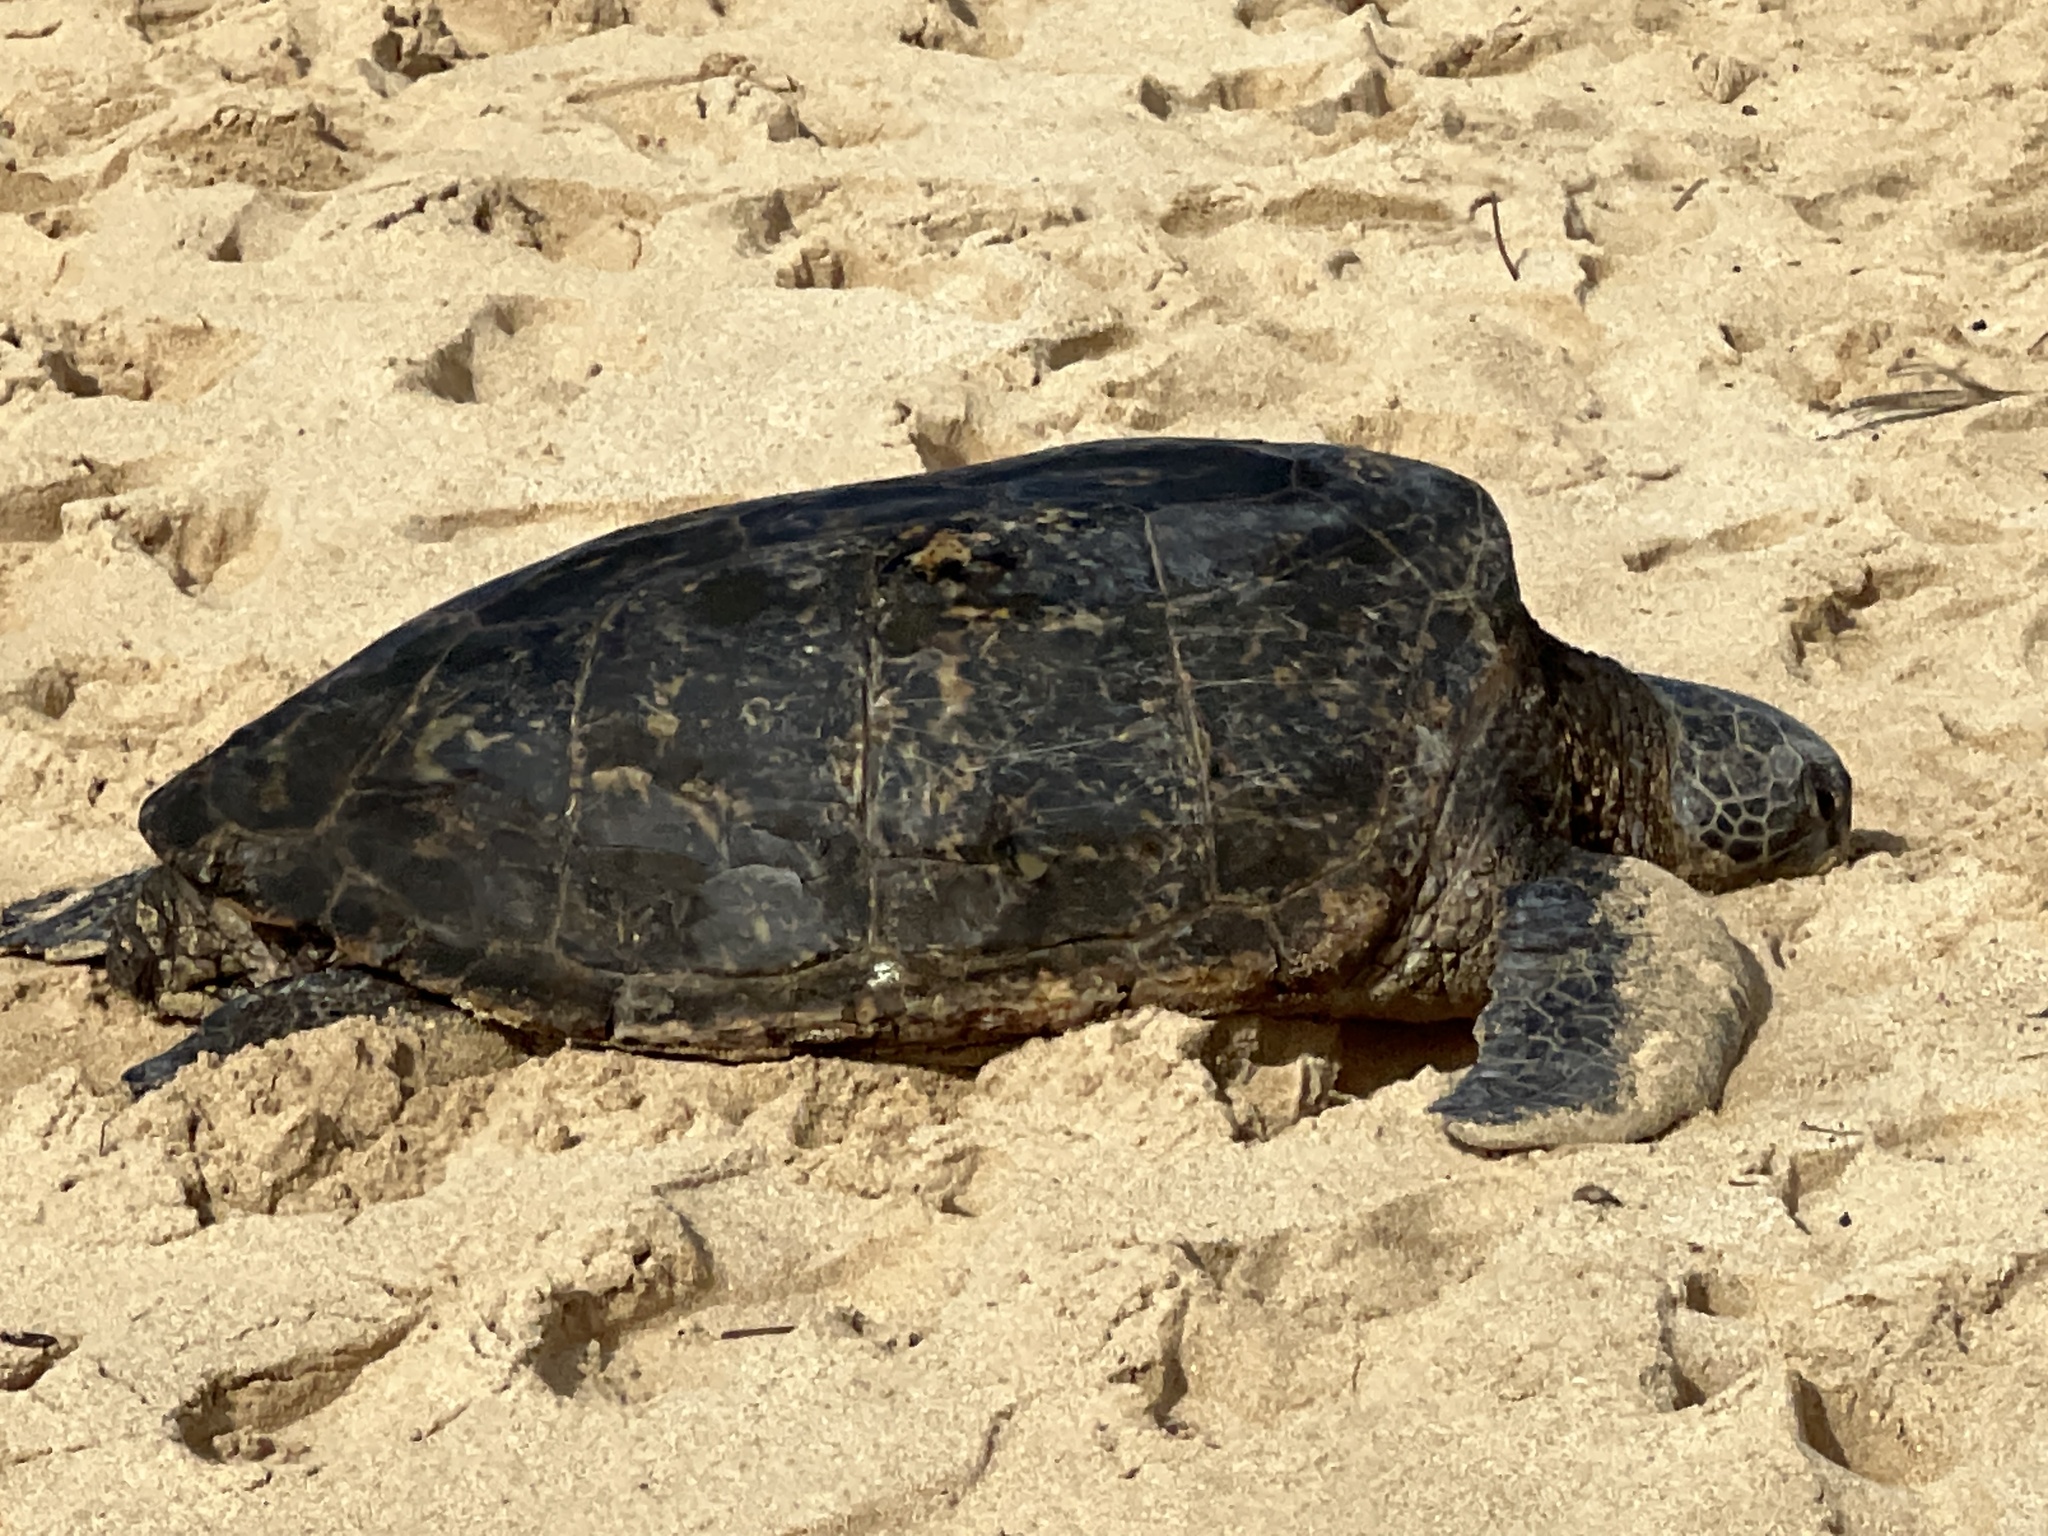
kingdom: Animalia
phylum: Chordata
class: Testudines
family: Cheloniidae
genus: Chelonia
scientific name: Chelonia mydas
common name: Green turtle
